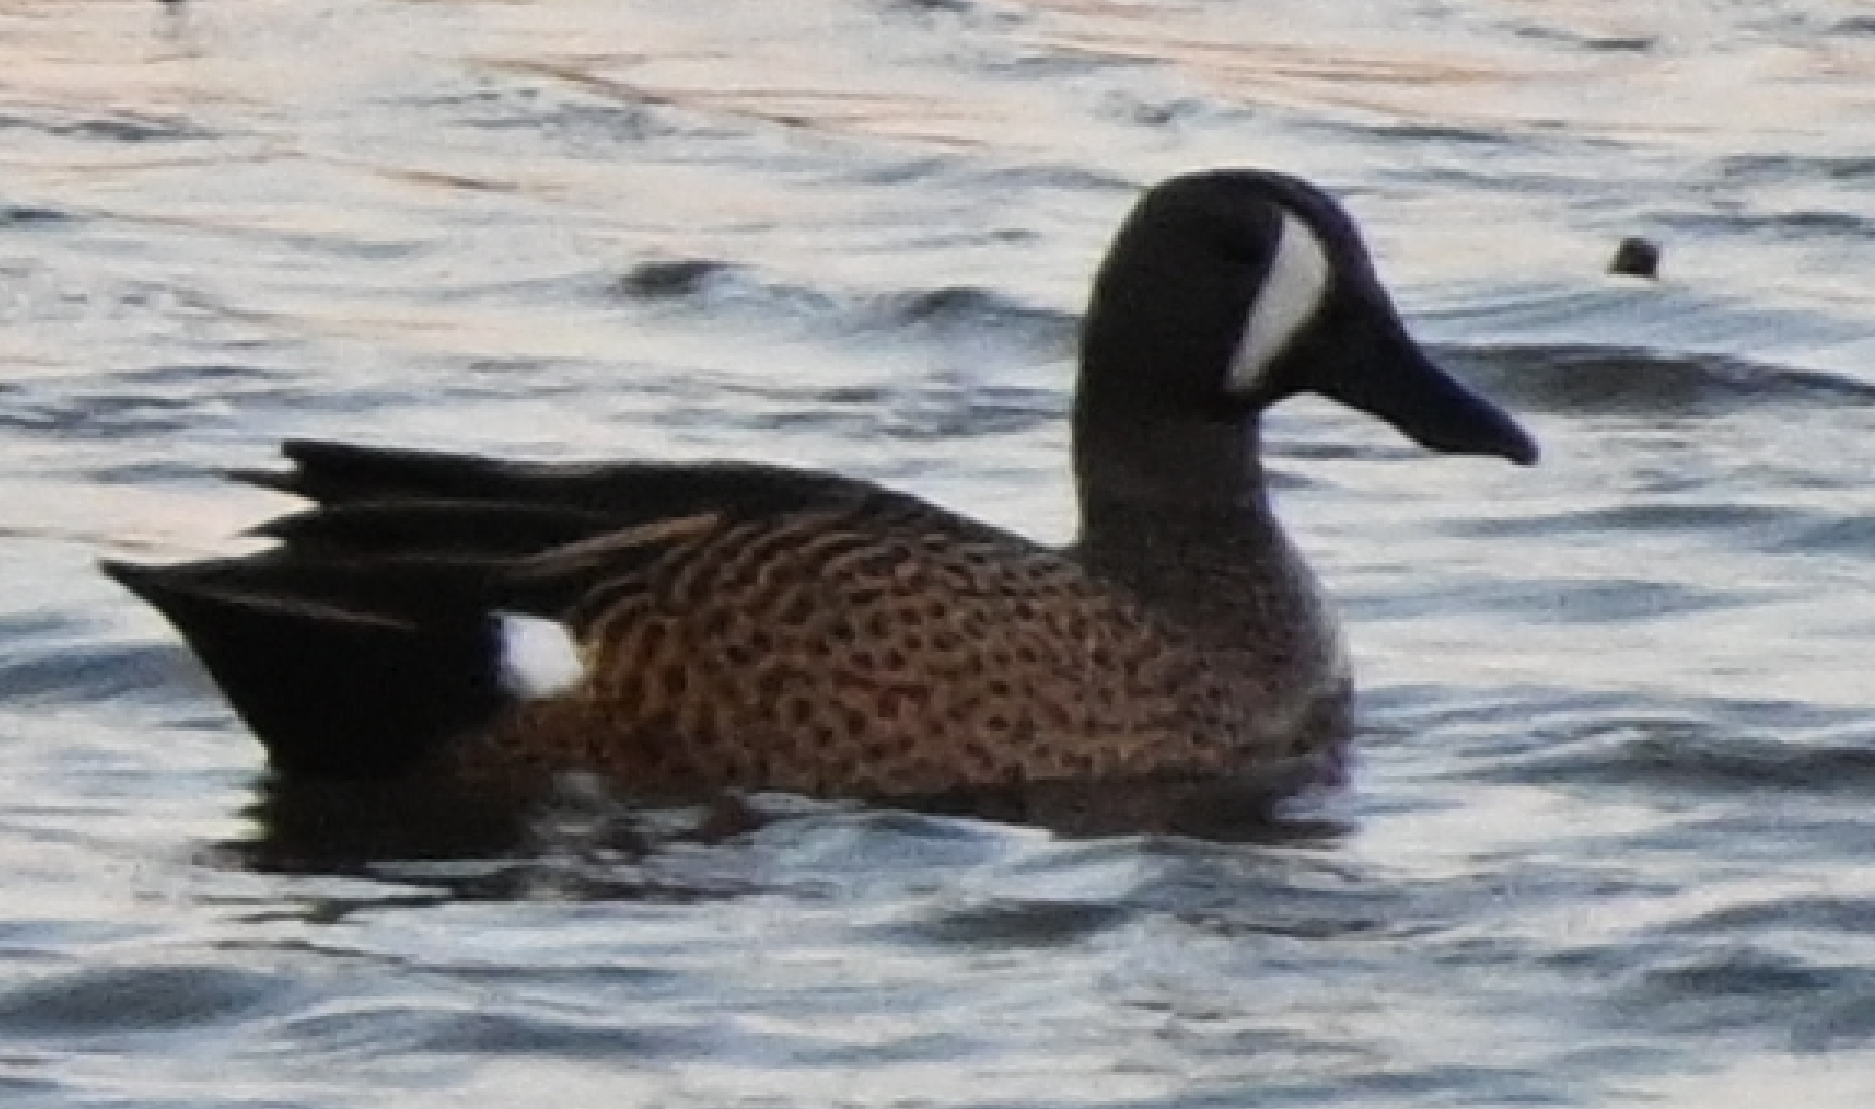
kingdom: Animalia
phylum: Chordata
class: Aves
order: Anseriformes
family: Anatidae
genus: Spatula
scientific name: Spatula discors
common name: Blue-winged teal
